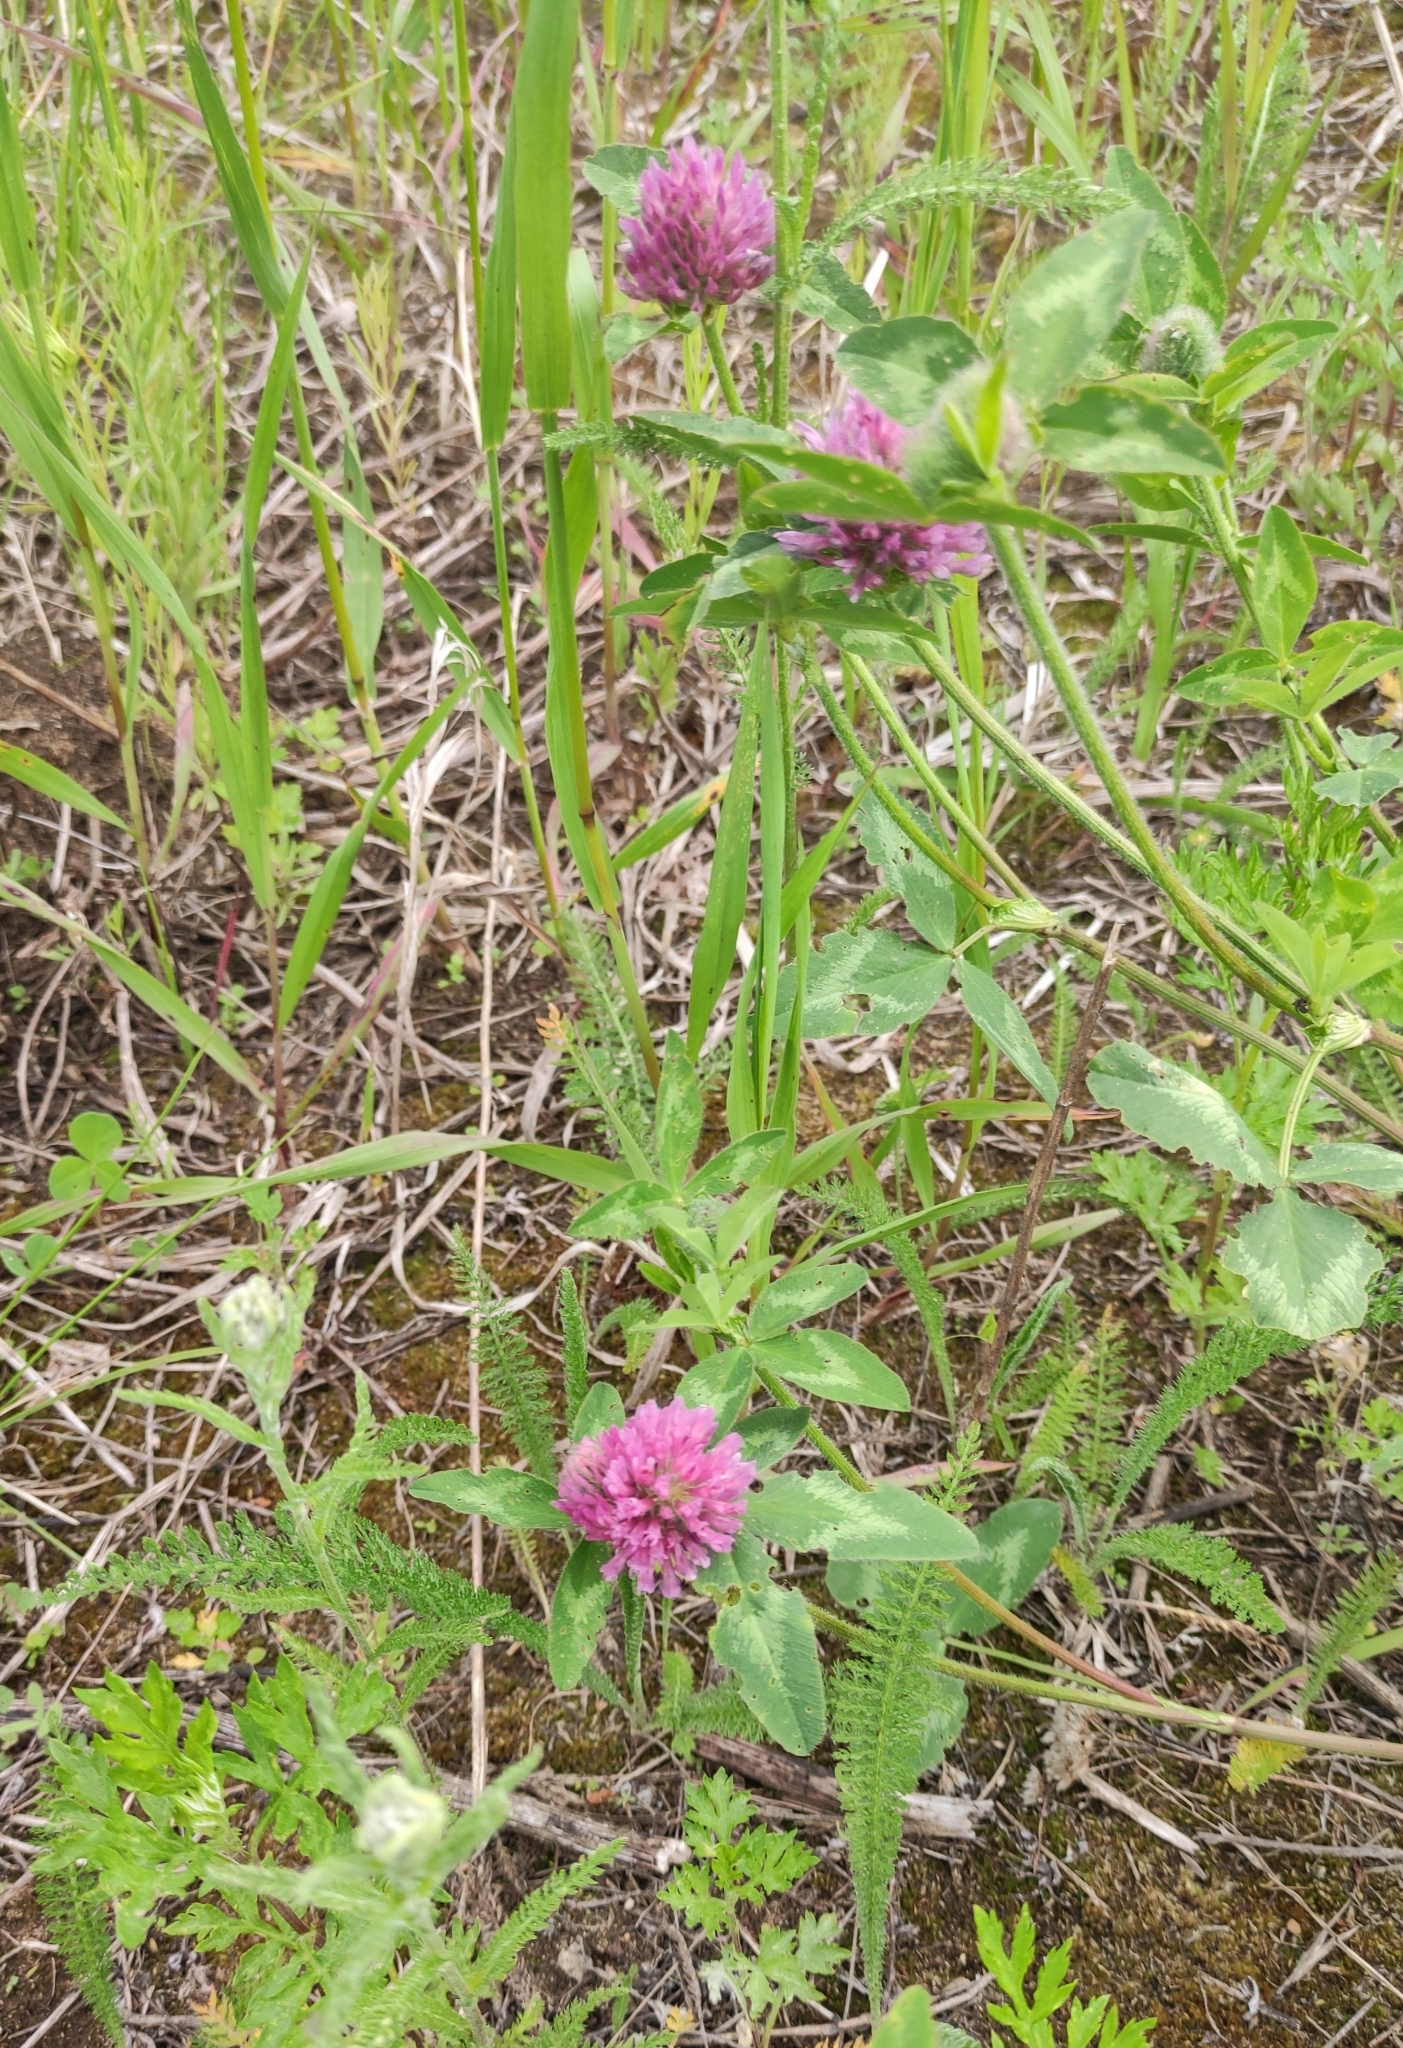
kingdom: Plantae
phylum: Tracheophyta
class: Magnoliopsida
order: Fabales
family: Fabaceae
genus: Trifolium
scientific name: Trifolium pratense
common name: Red clover
